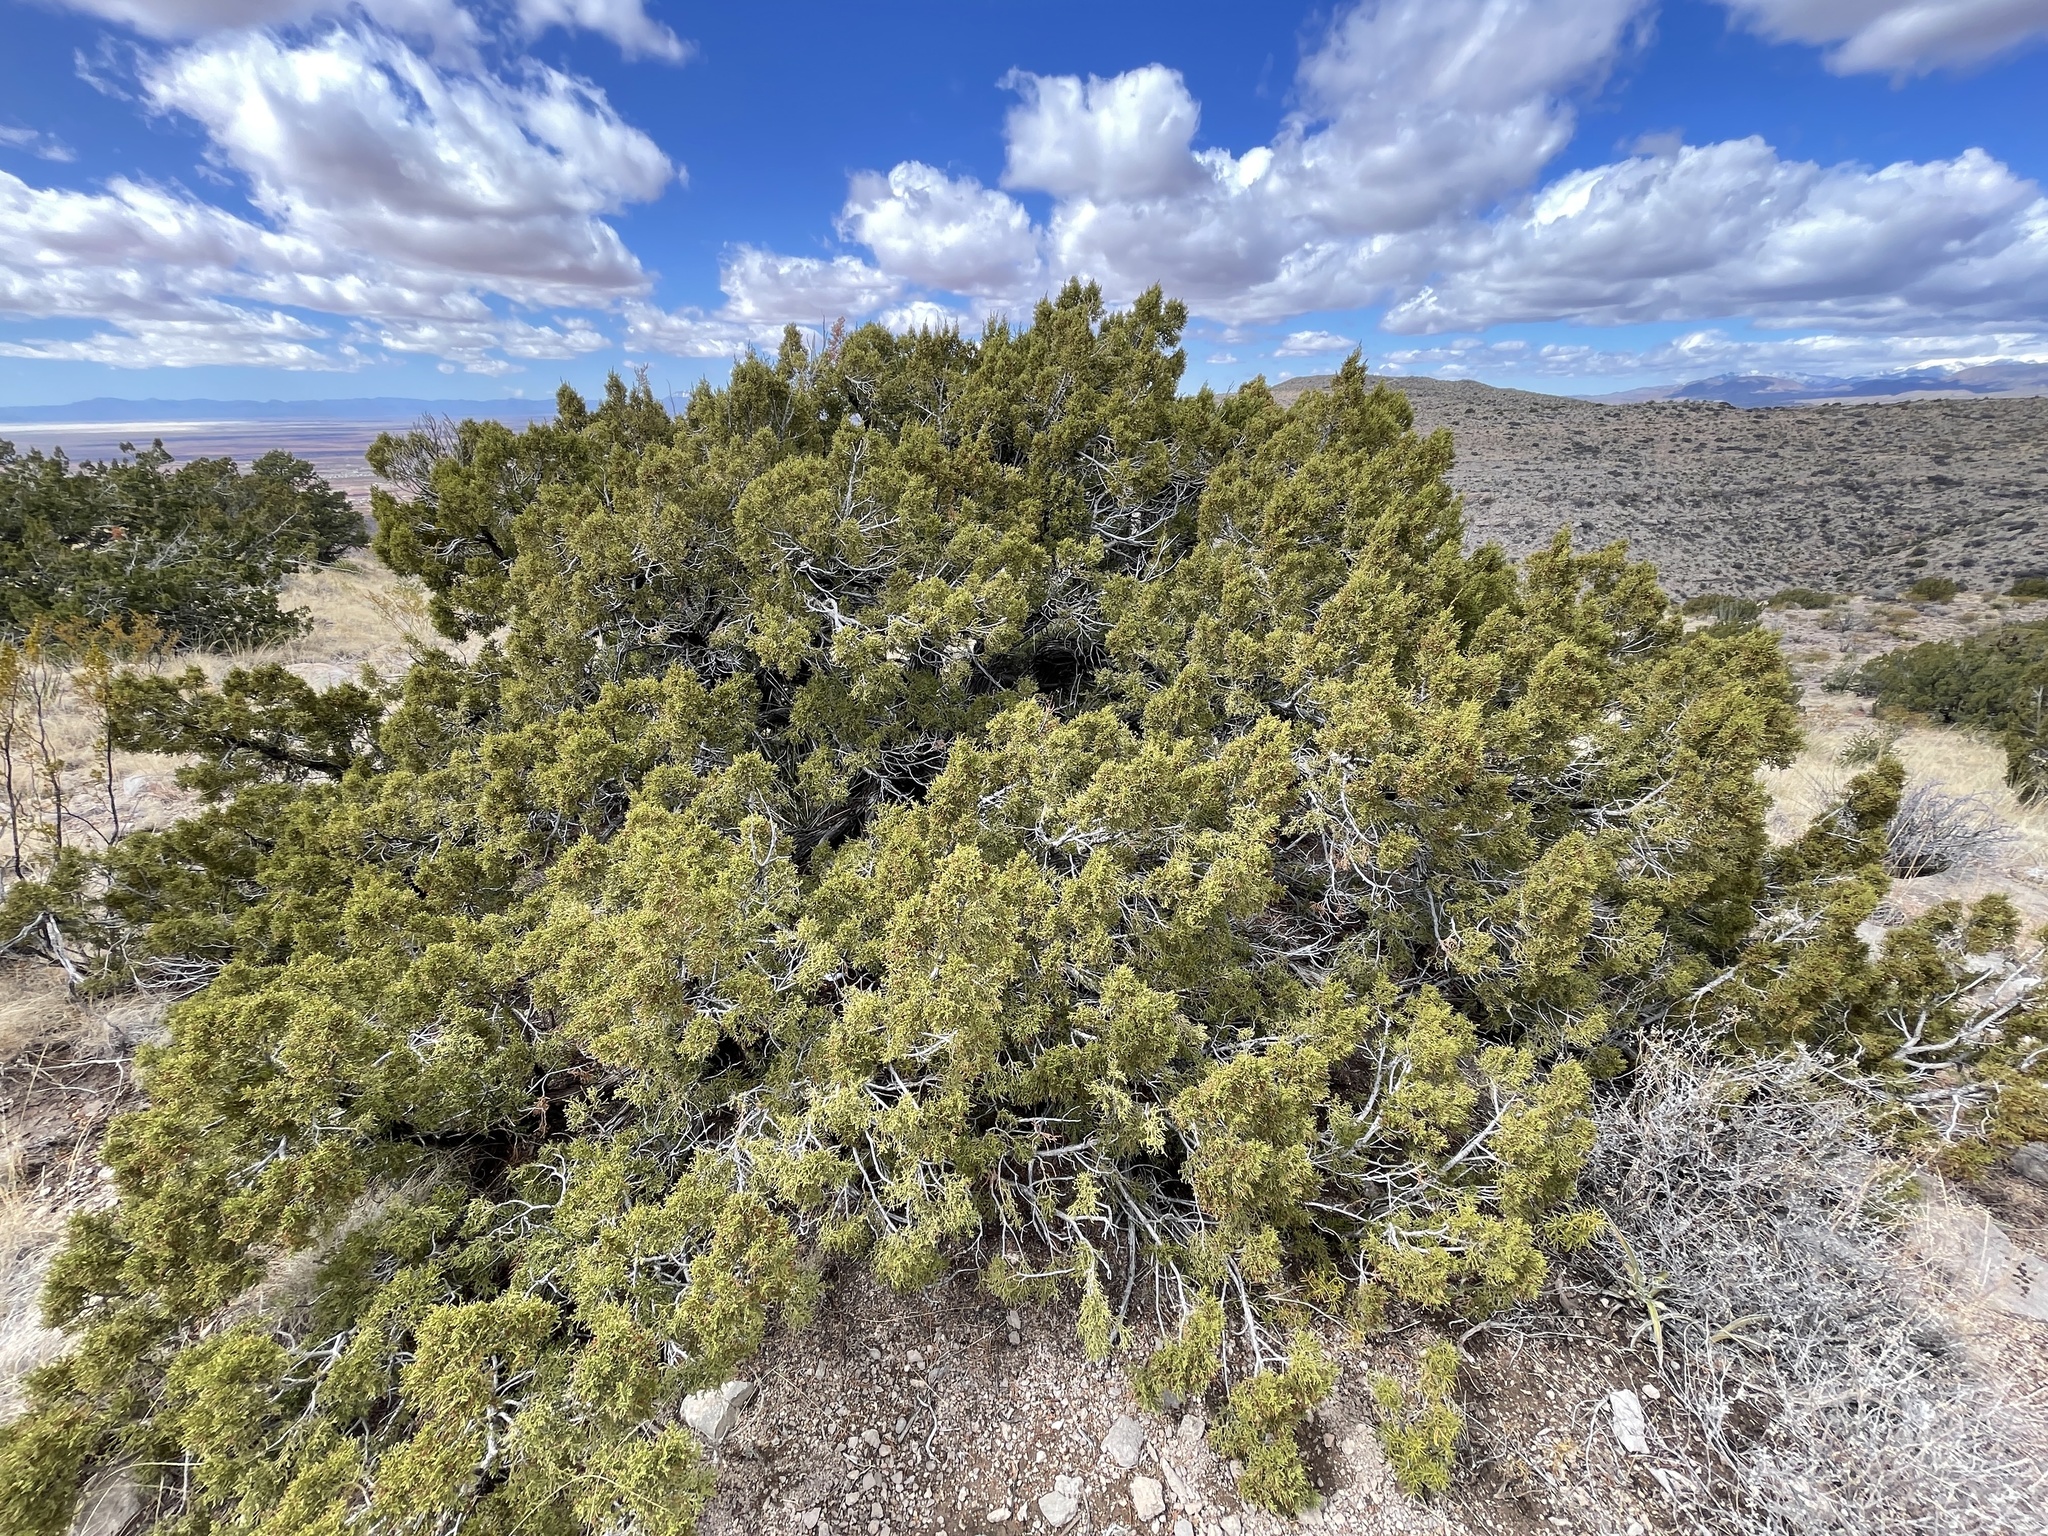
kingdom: Plantae
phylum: Tracheophyta
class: Pinopsida
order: Pinales
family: Cupressaceae
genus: Juniperus
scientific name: Juniperus monosperma
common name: One-seed juniper
